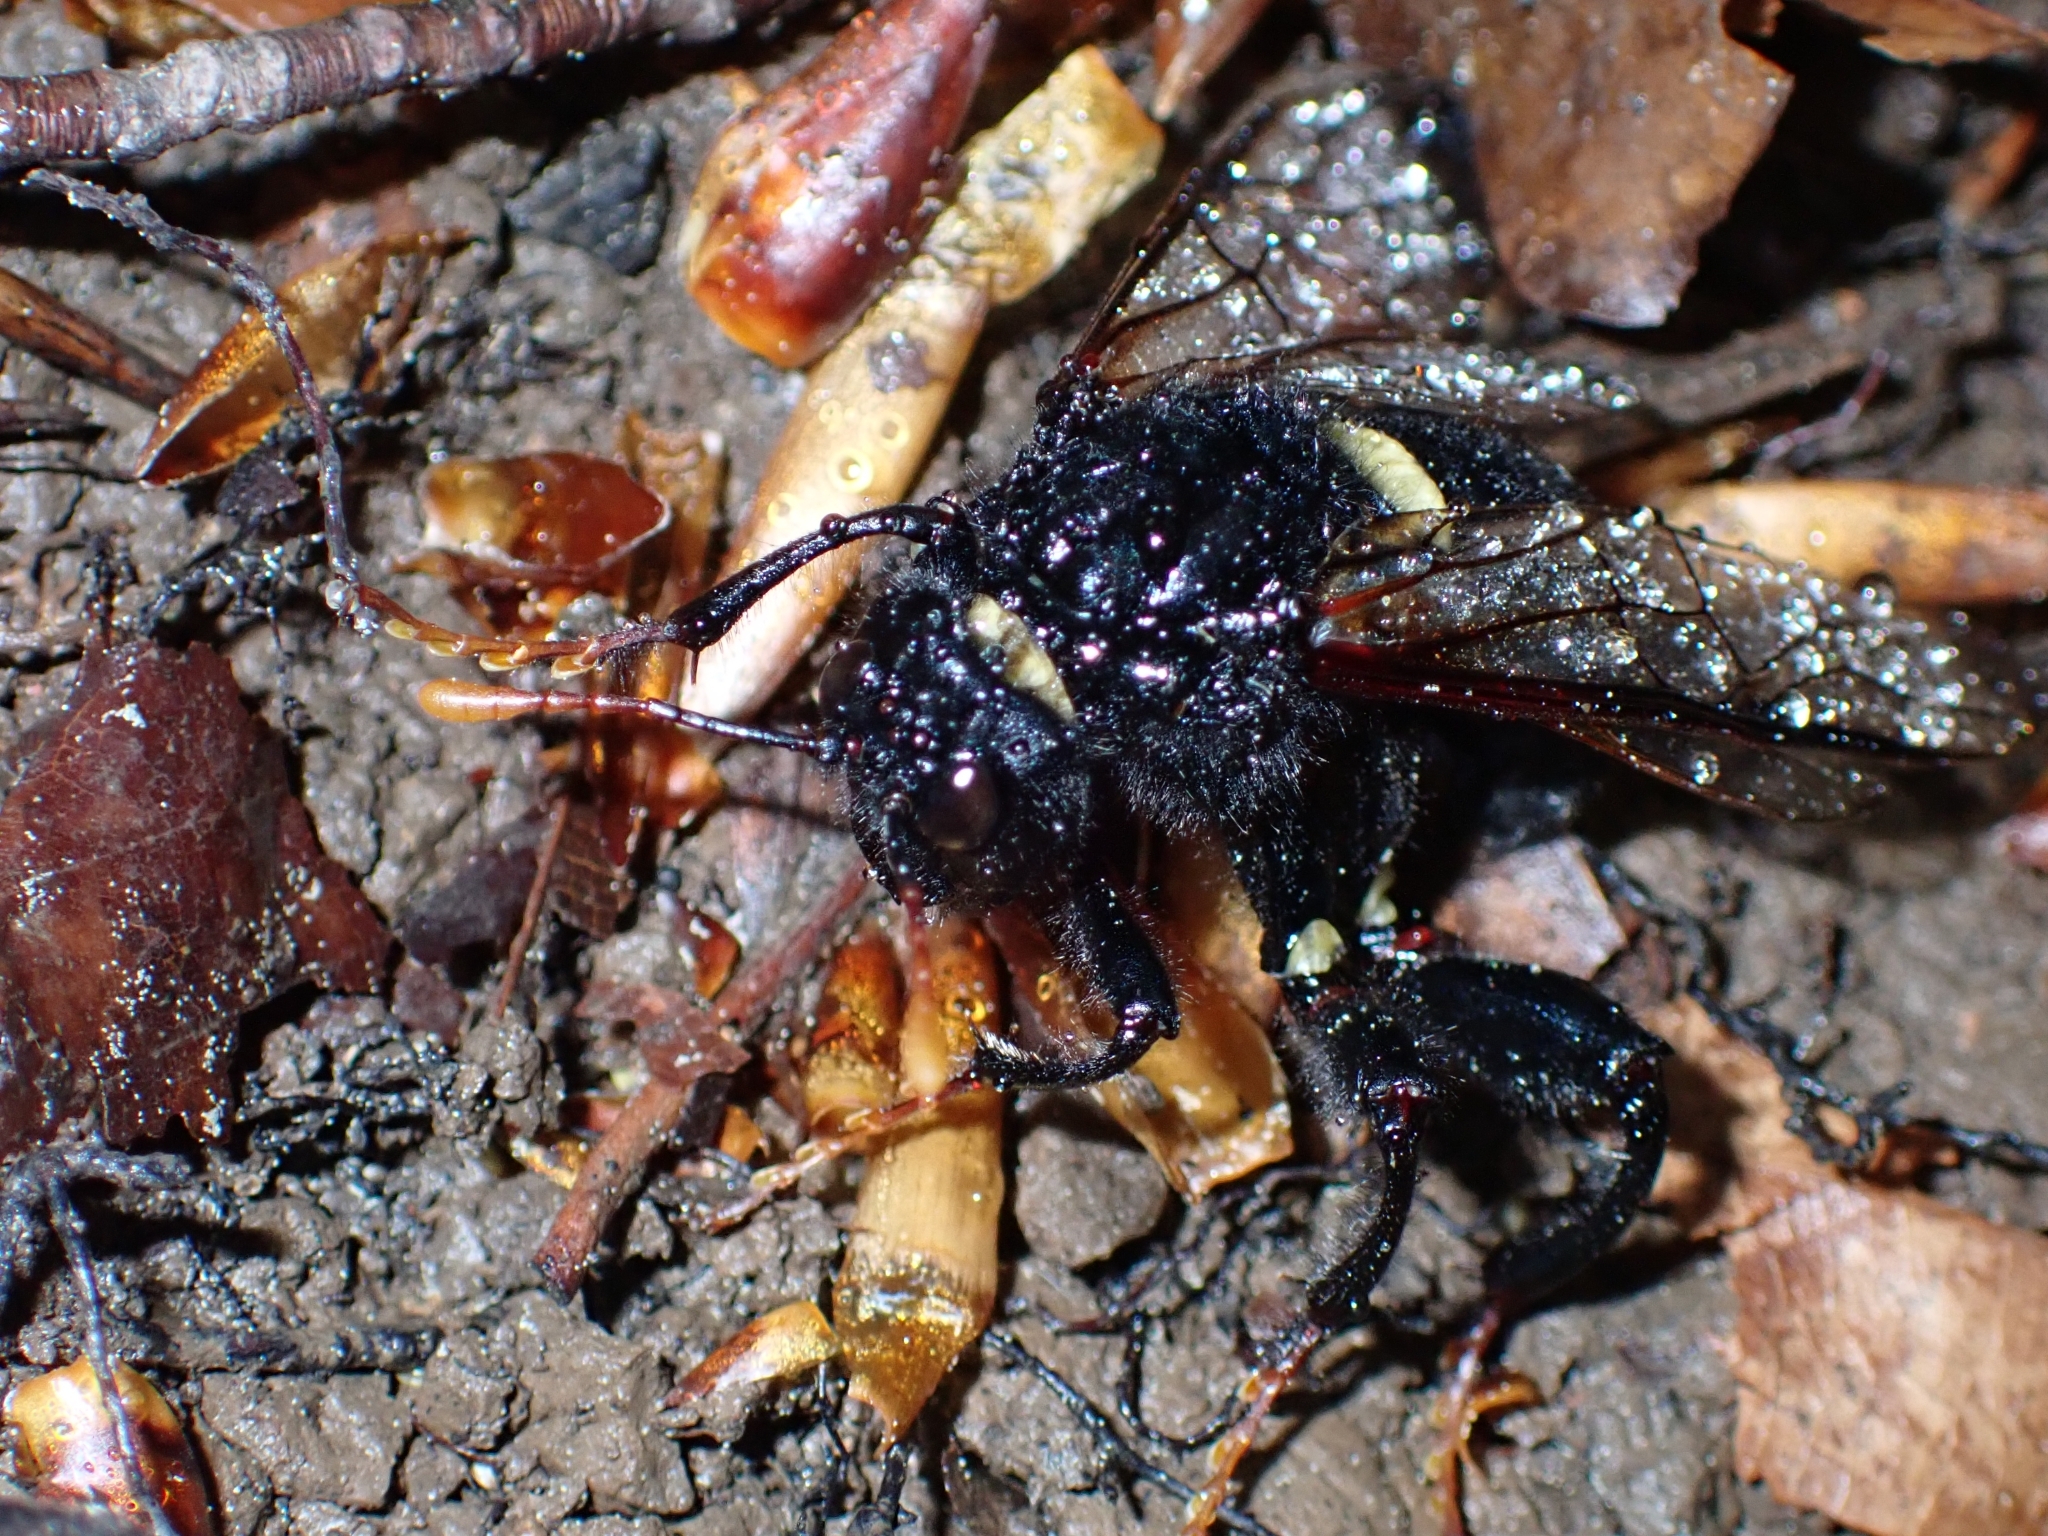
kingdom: Animalia
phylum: Arthropoda
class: Insecta
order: Hymenoptera
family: Cimbicidae
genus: Cimbex
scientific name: Cimbex femoratus
